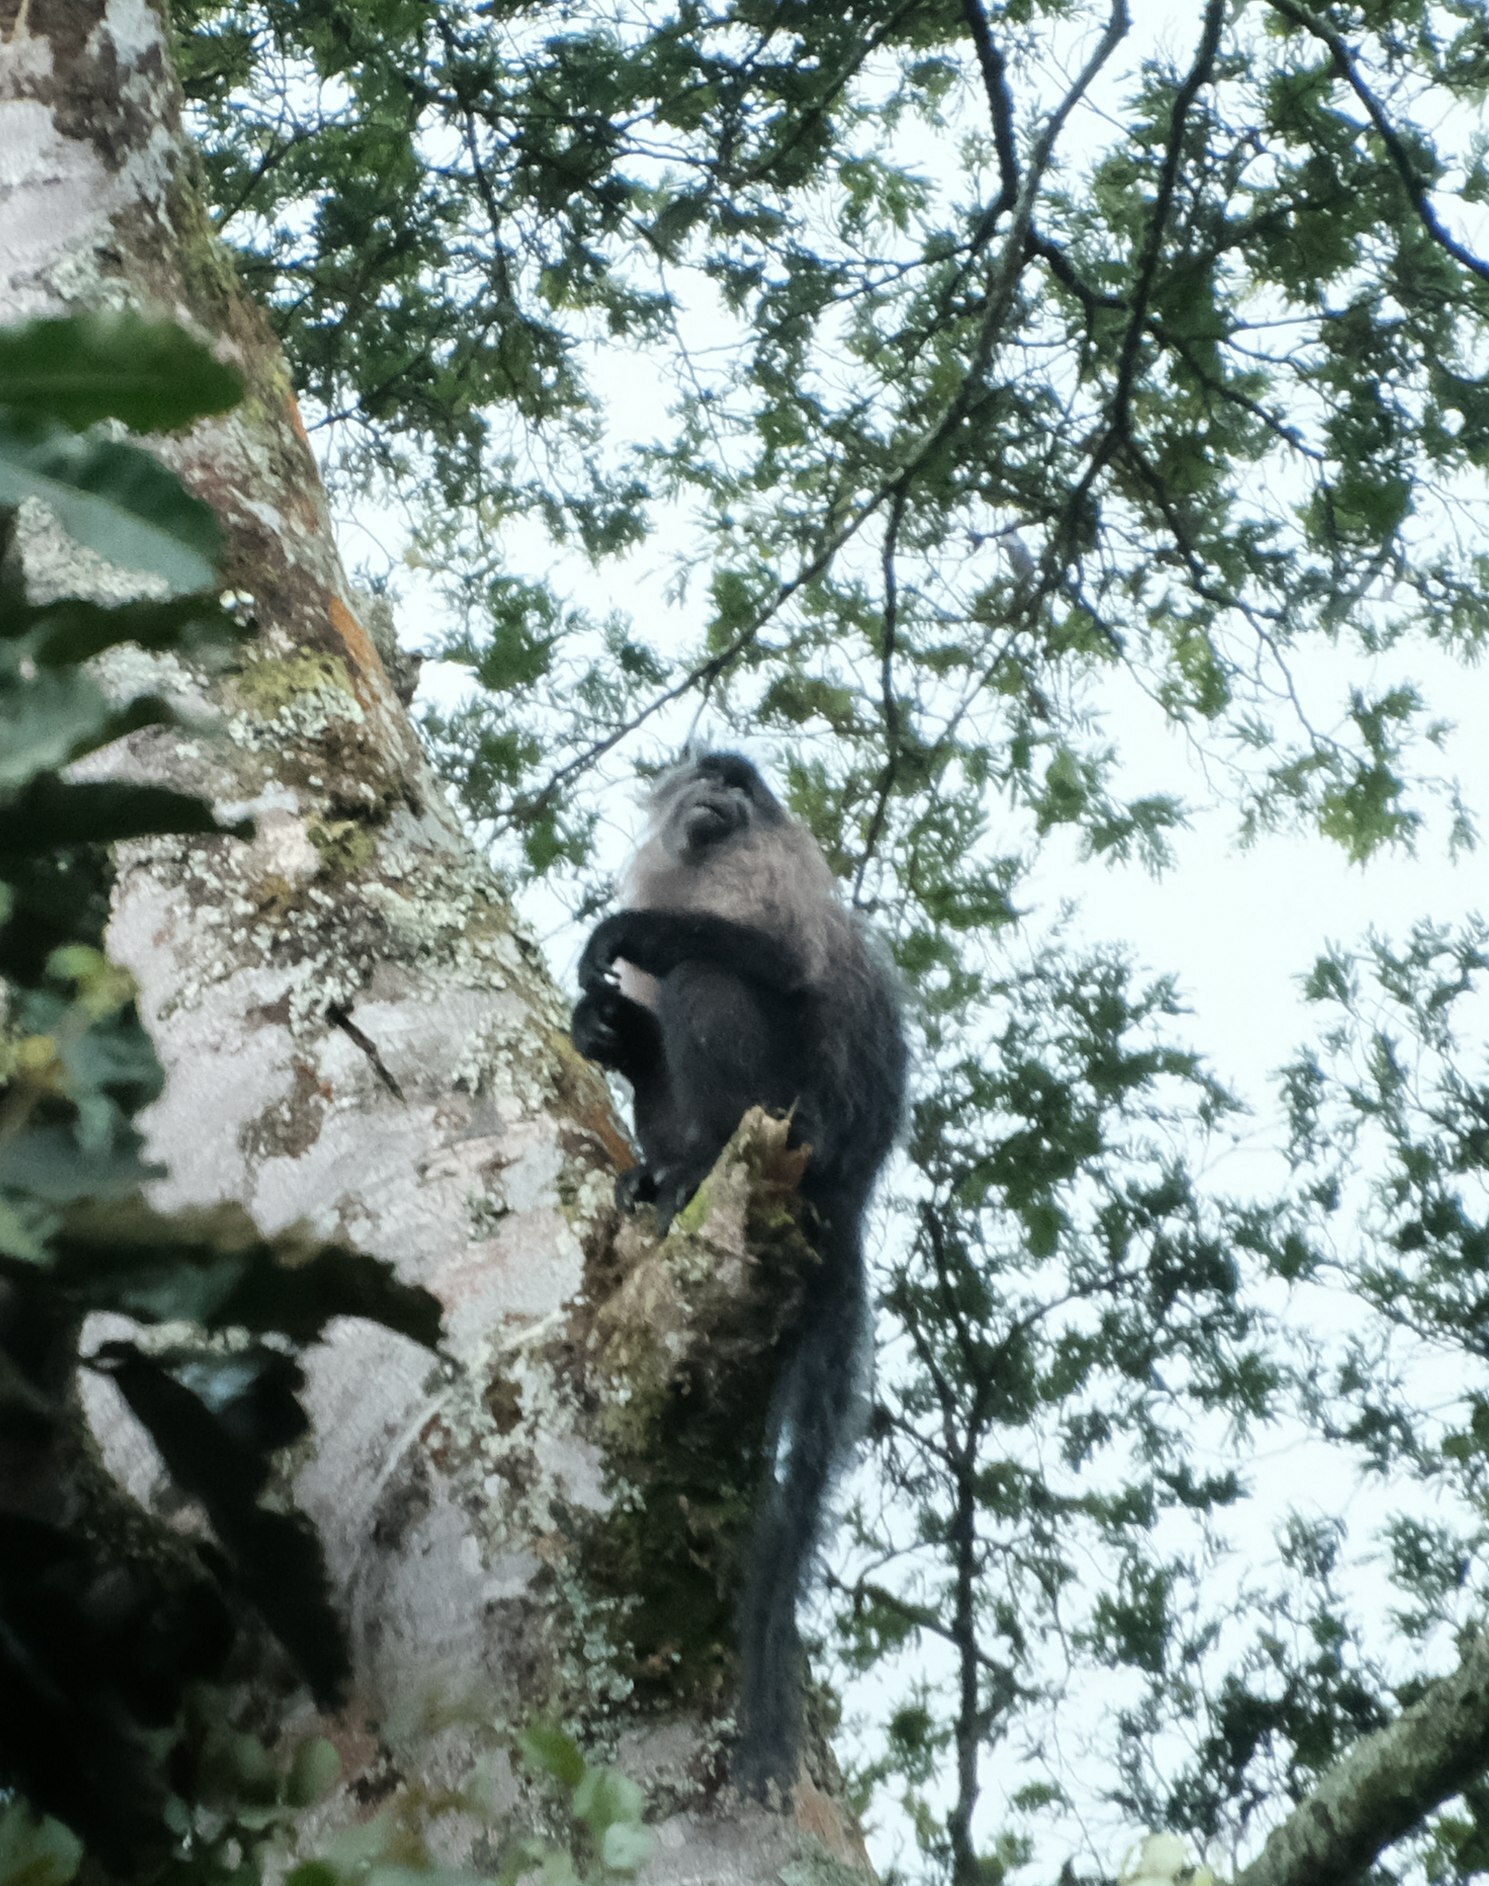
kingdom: Animalia
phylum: Chordata
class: Mammalia
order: Primates
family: Cercopithecidae
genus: Lophocebus
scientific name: Lophocebus albigena
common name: Gray-cheeked mangabey
